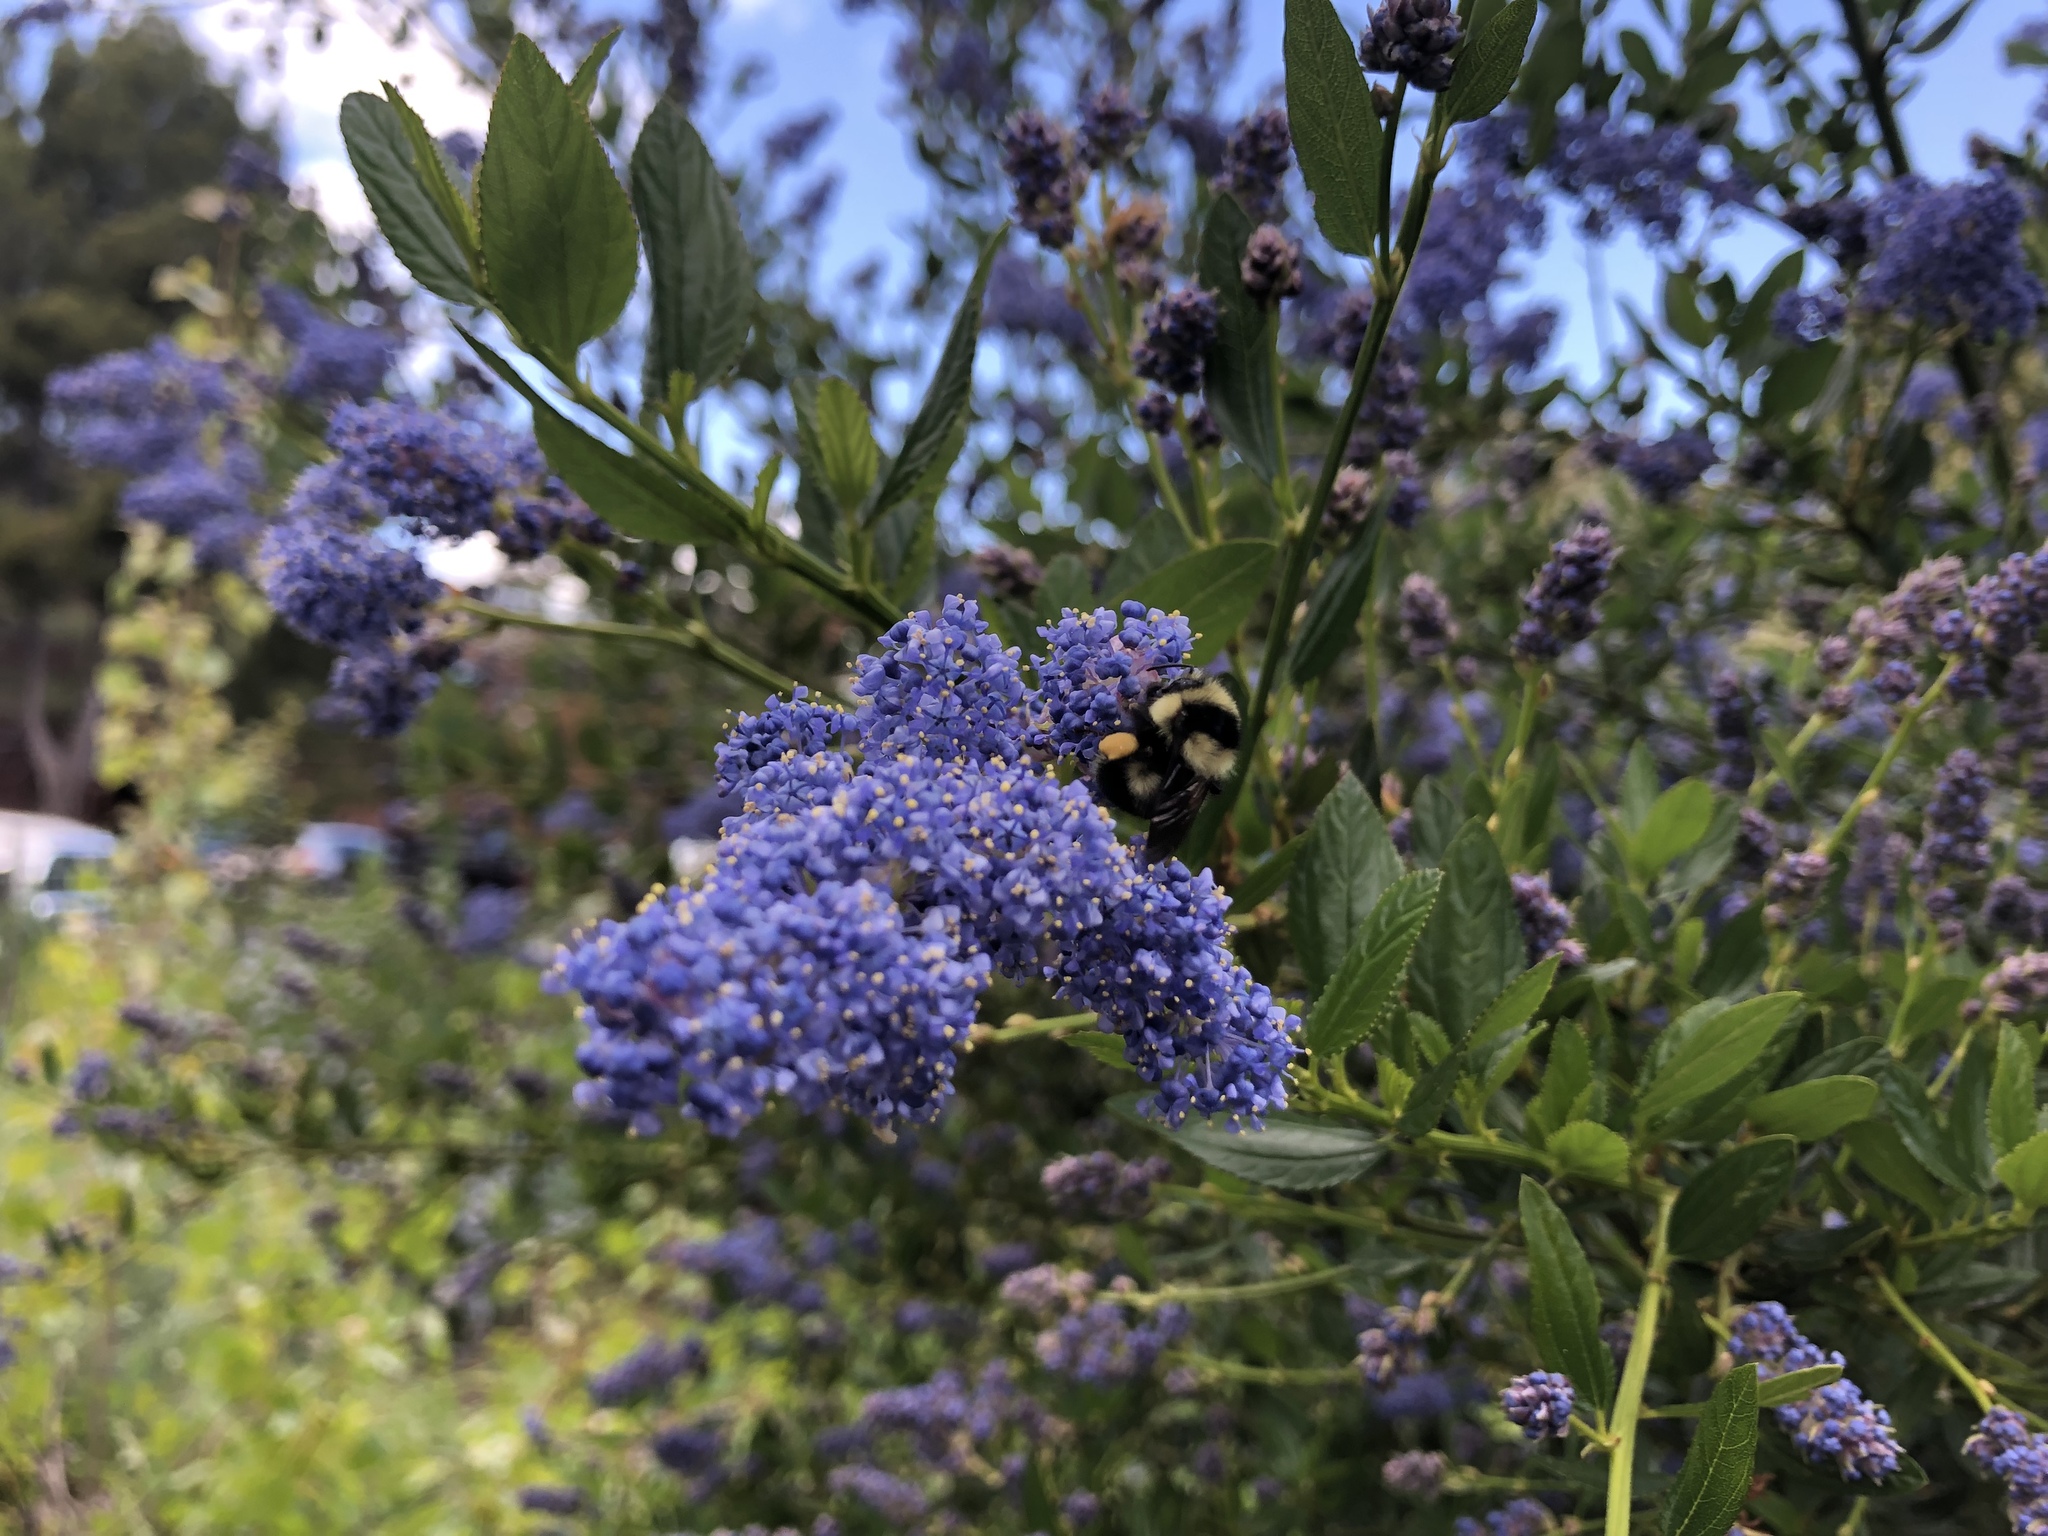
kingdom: Animalia
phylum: Arthropoda
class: Insecta
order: Hymenoptera
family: Apidae
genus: Bombus
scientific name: Bombus melanopygus
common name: Black tail bumble bee
